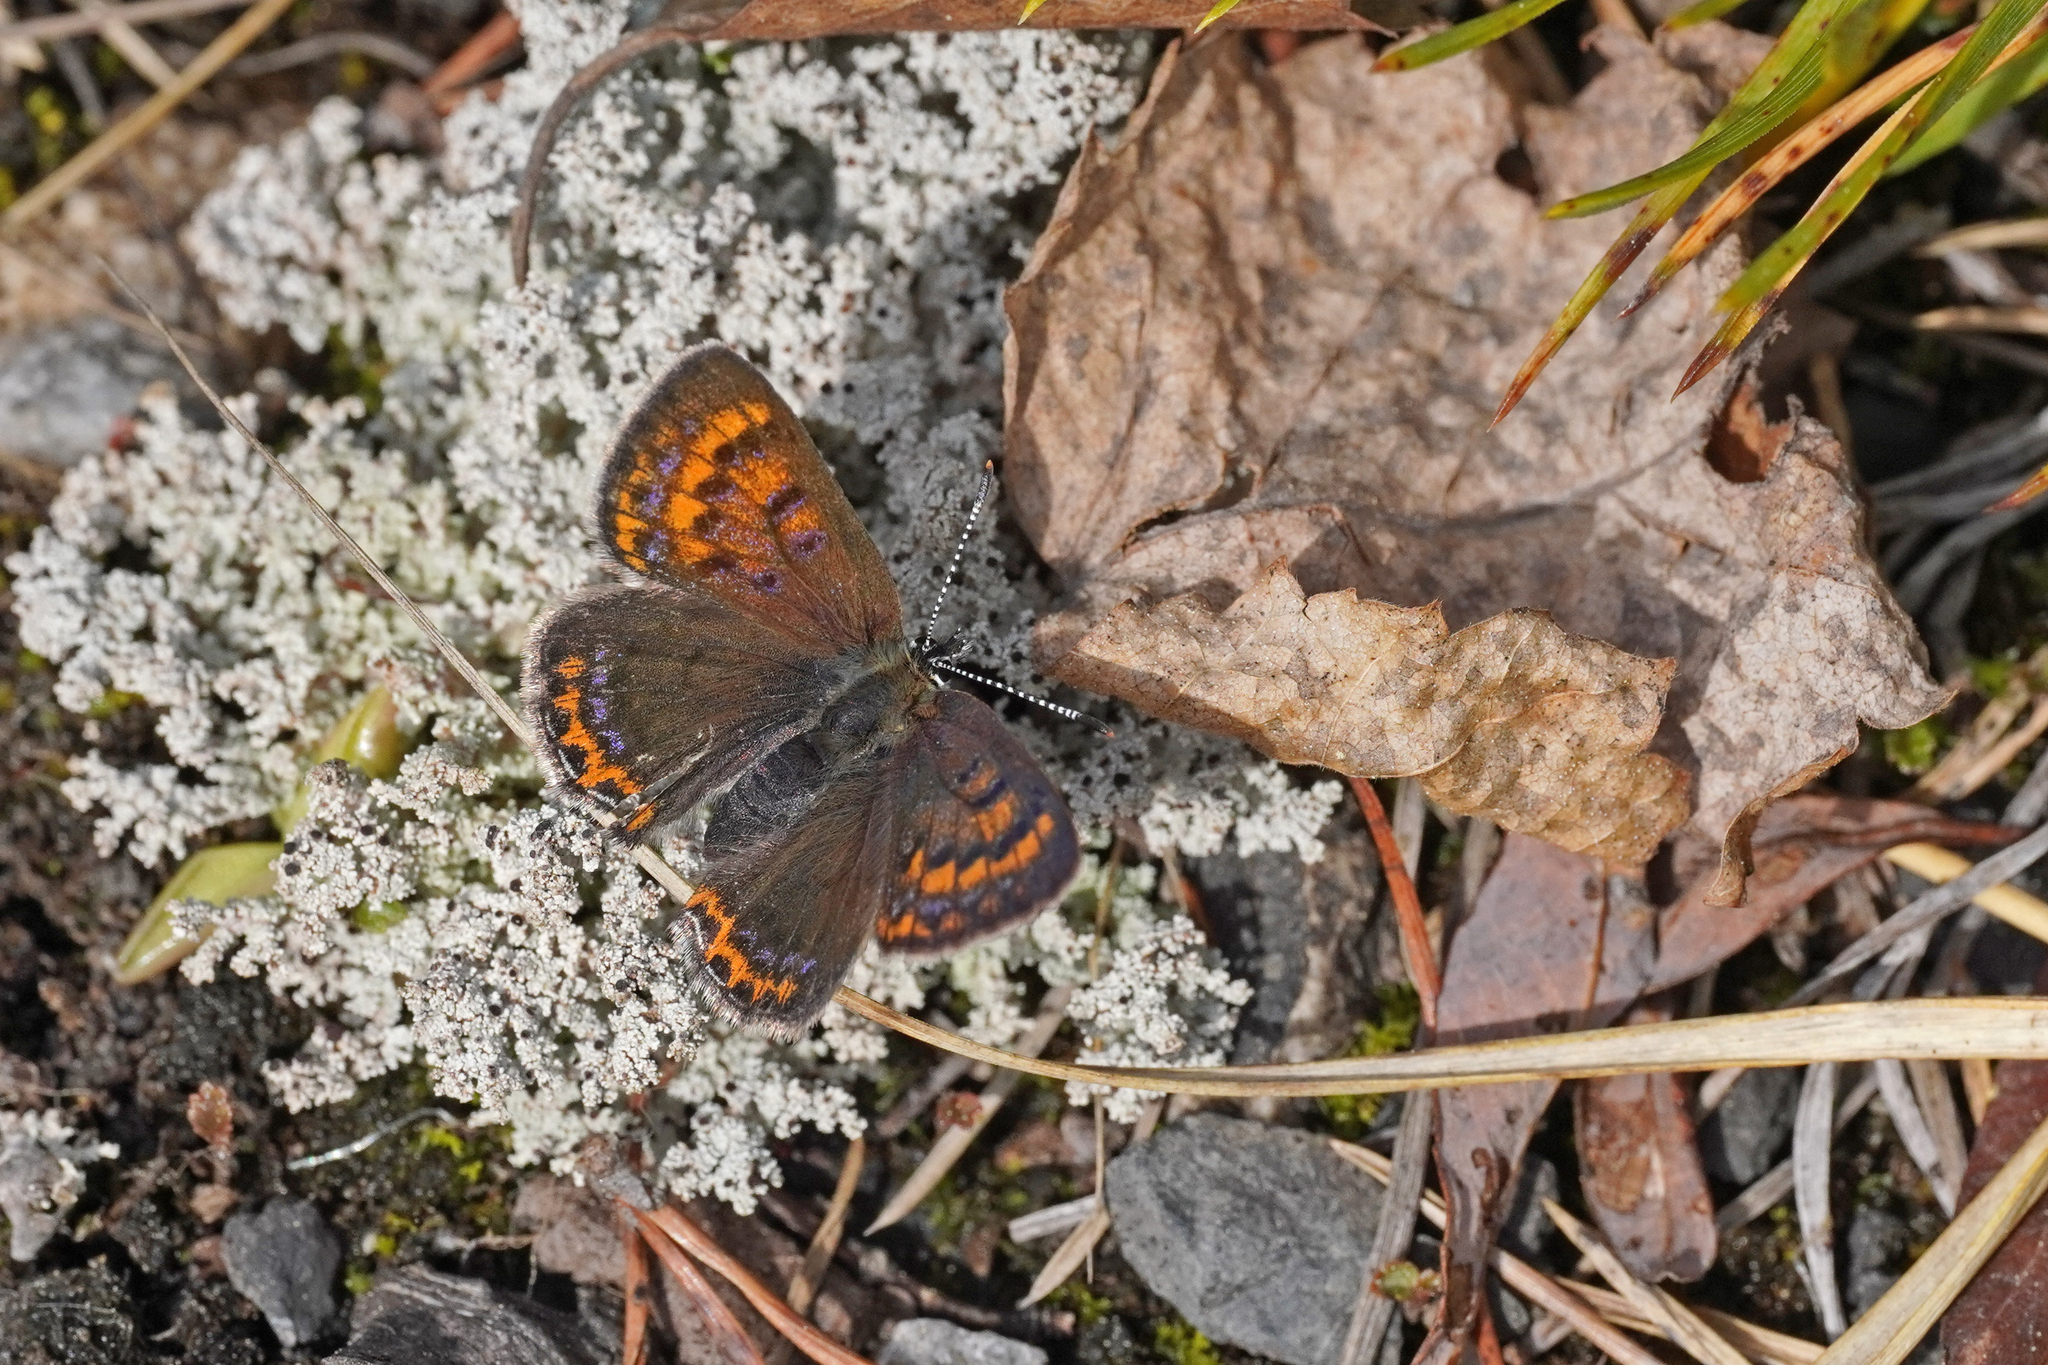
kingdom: Animalia
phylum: Arthropoda
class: Insecta
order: Lepidoptera
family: Lycaenidae
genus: Helleia
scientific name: Helleia helle
